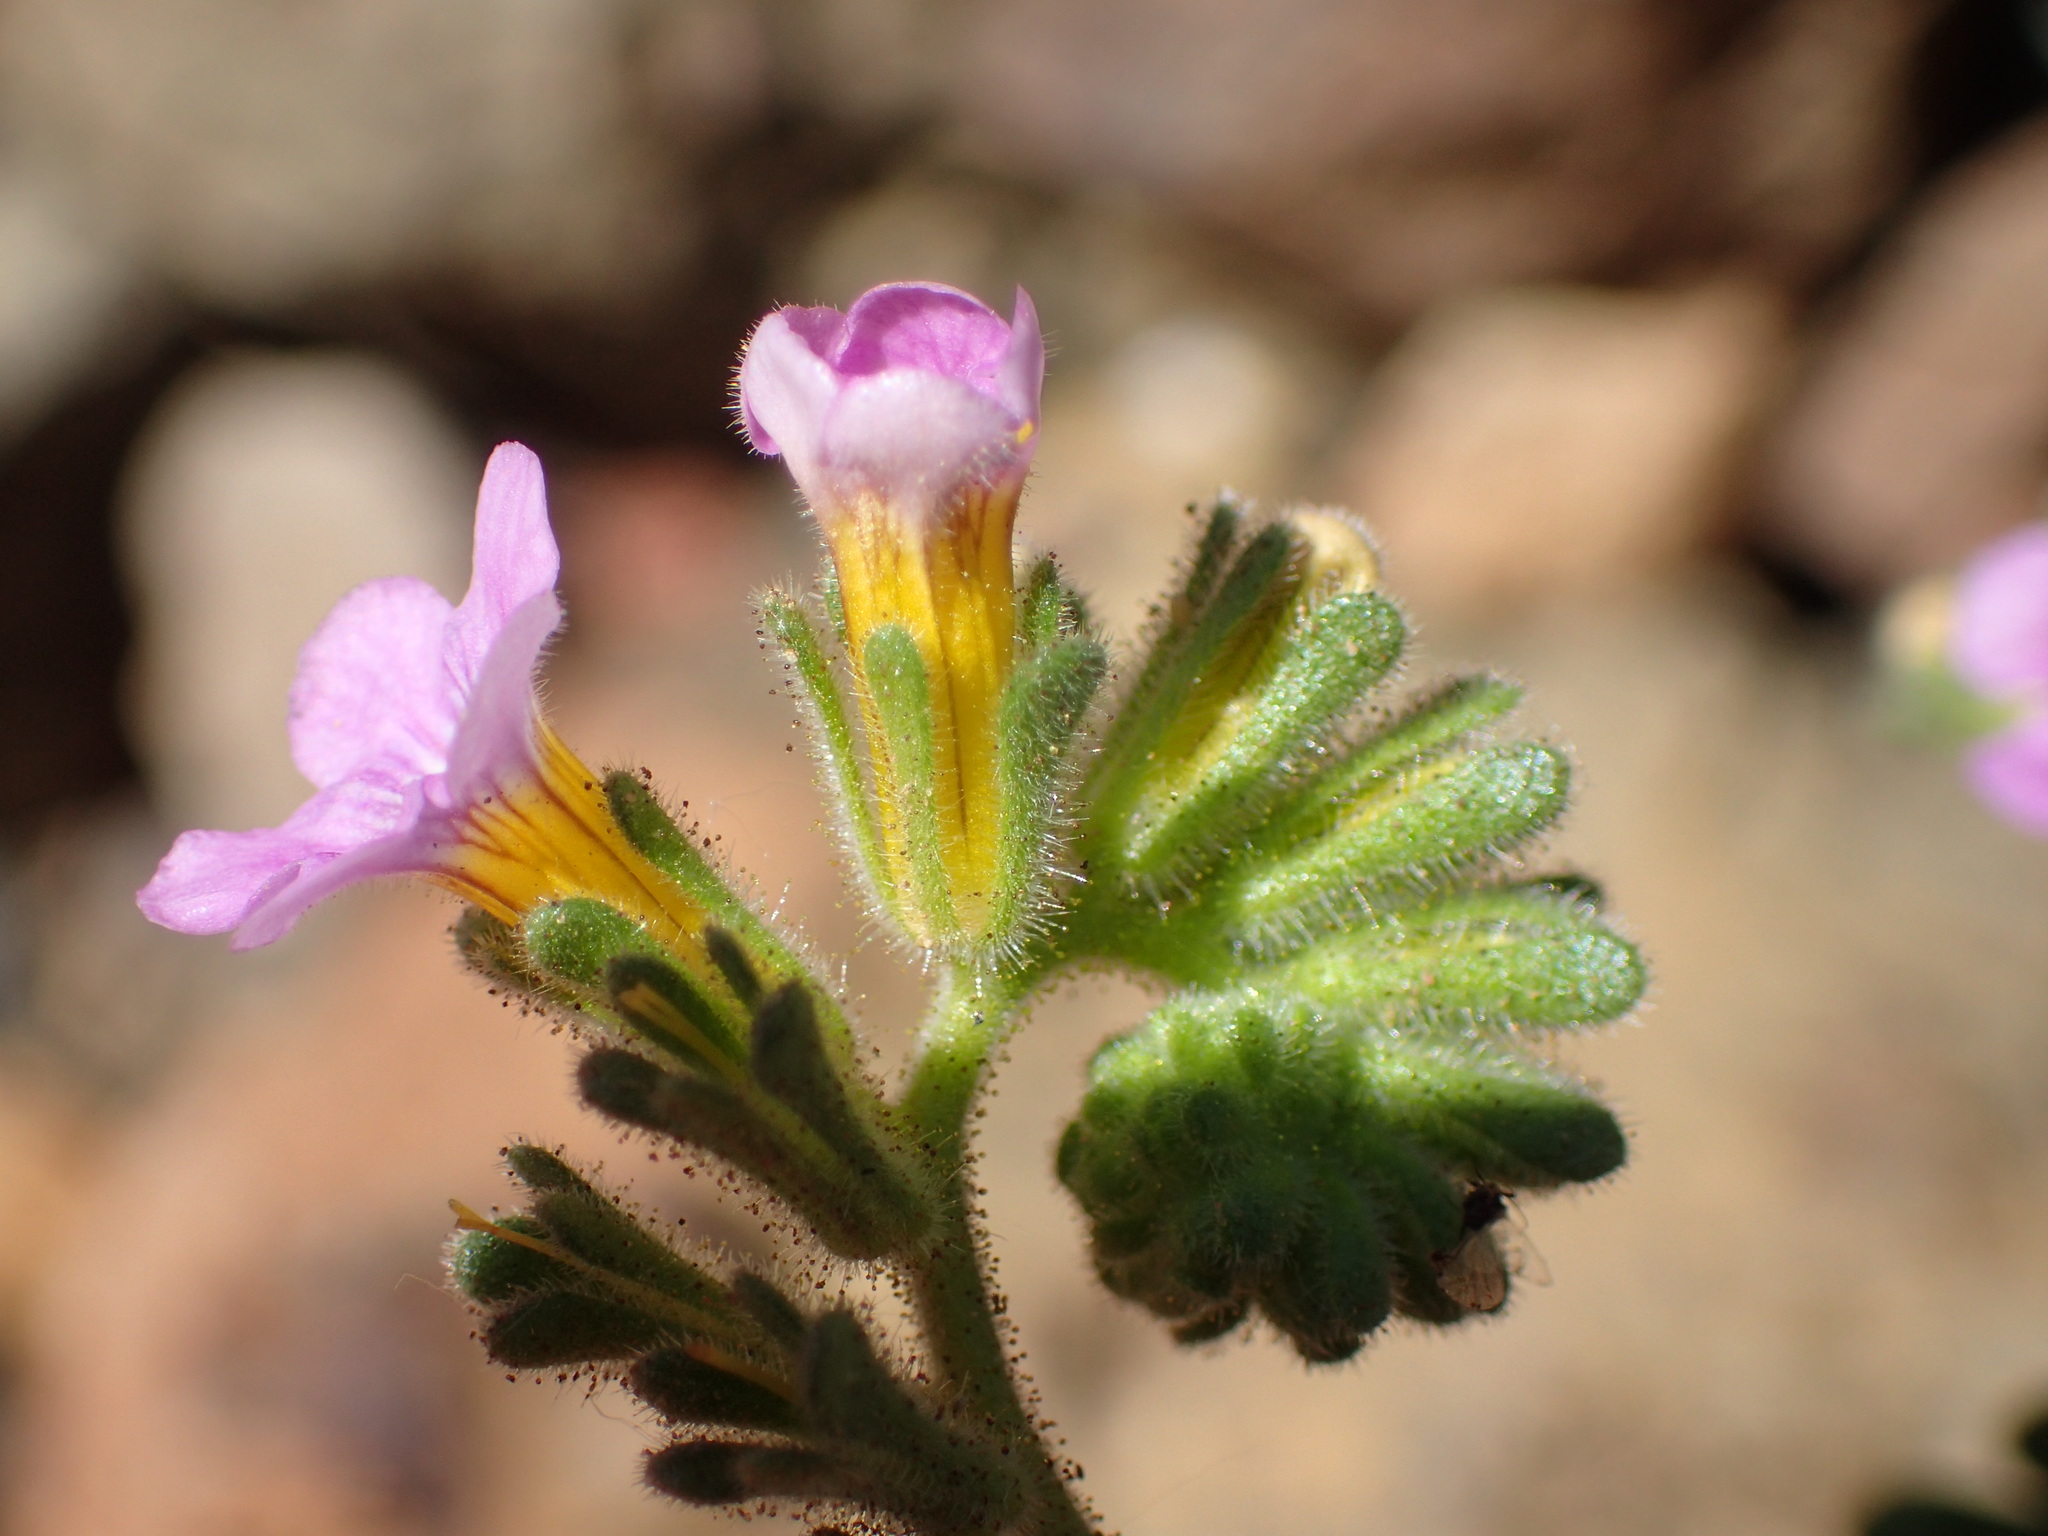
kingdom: Plantae
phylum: Tracheophyta
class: Magnoliopsida
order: Boraginales
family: Hydrophyllaceae
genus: Phacelia
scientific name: Phacelia brachyloba
